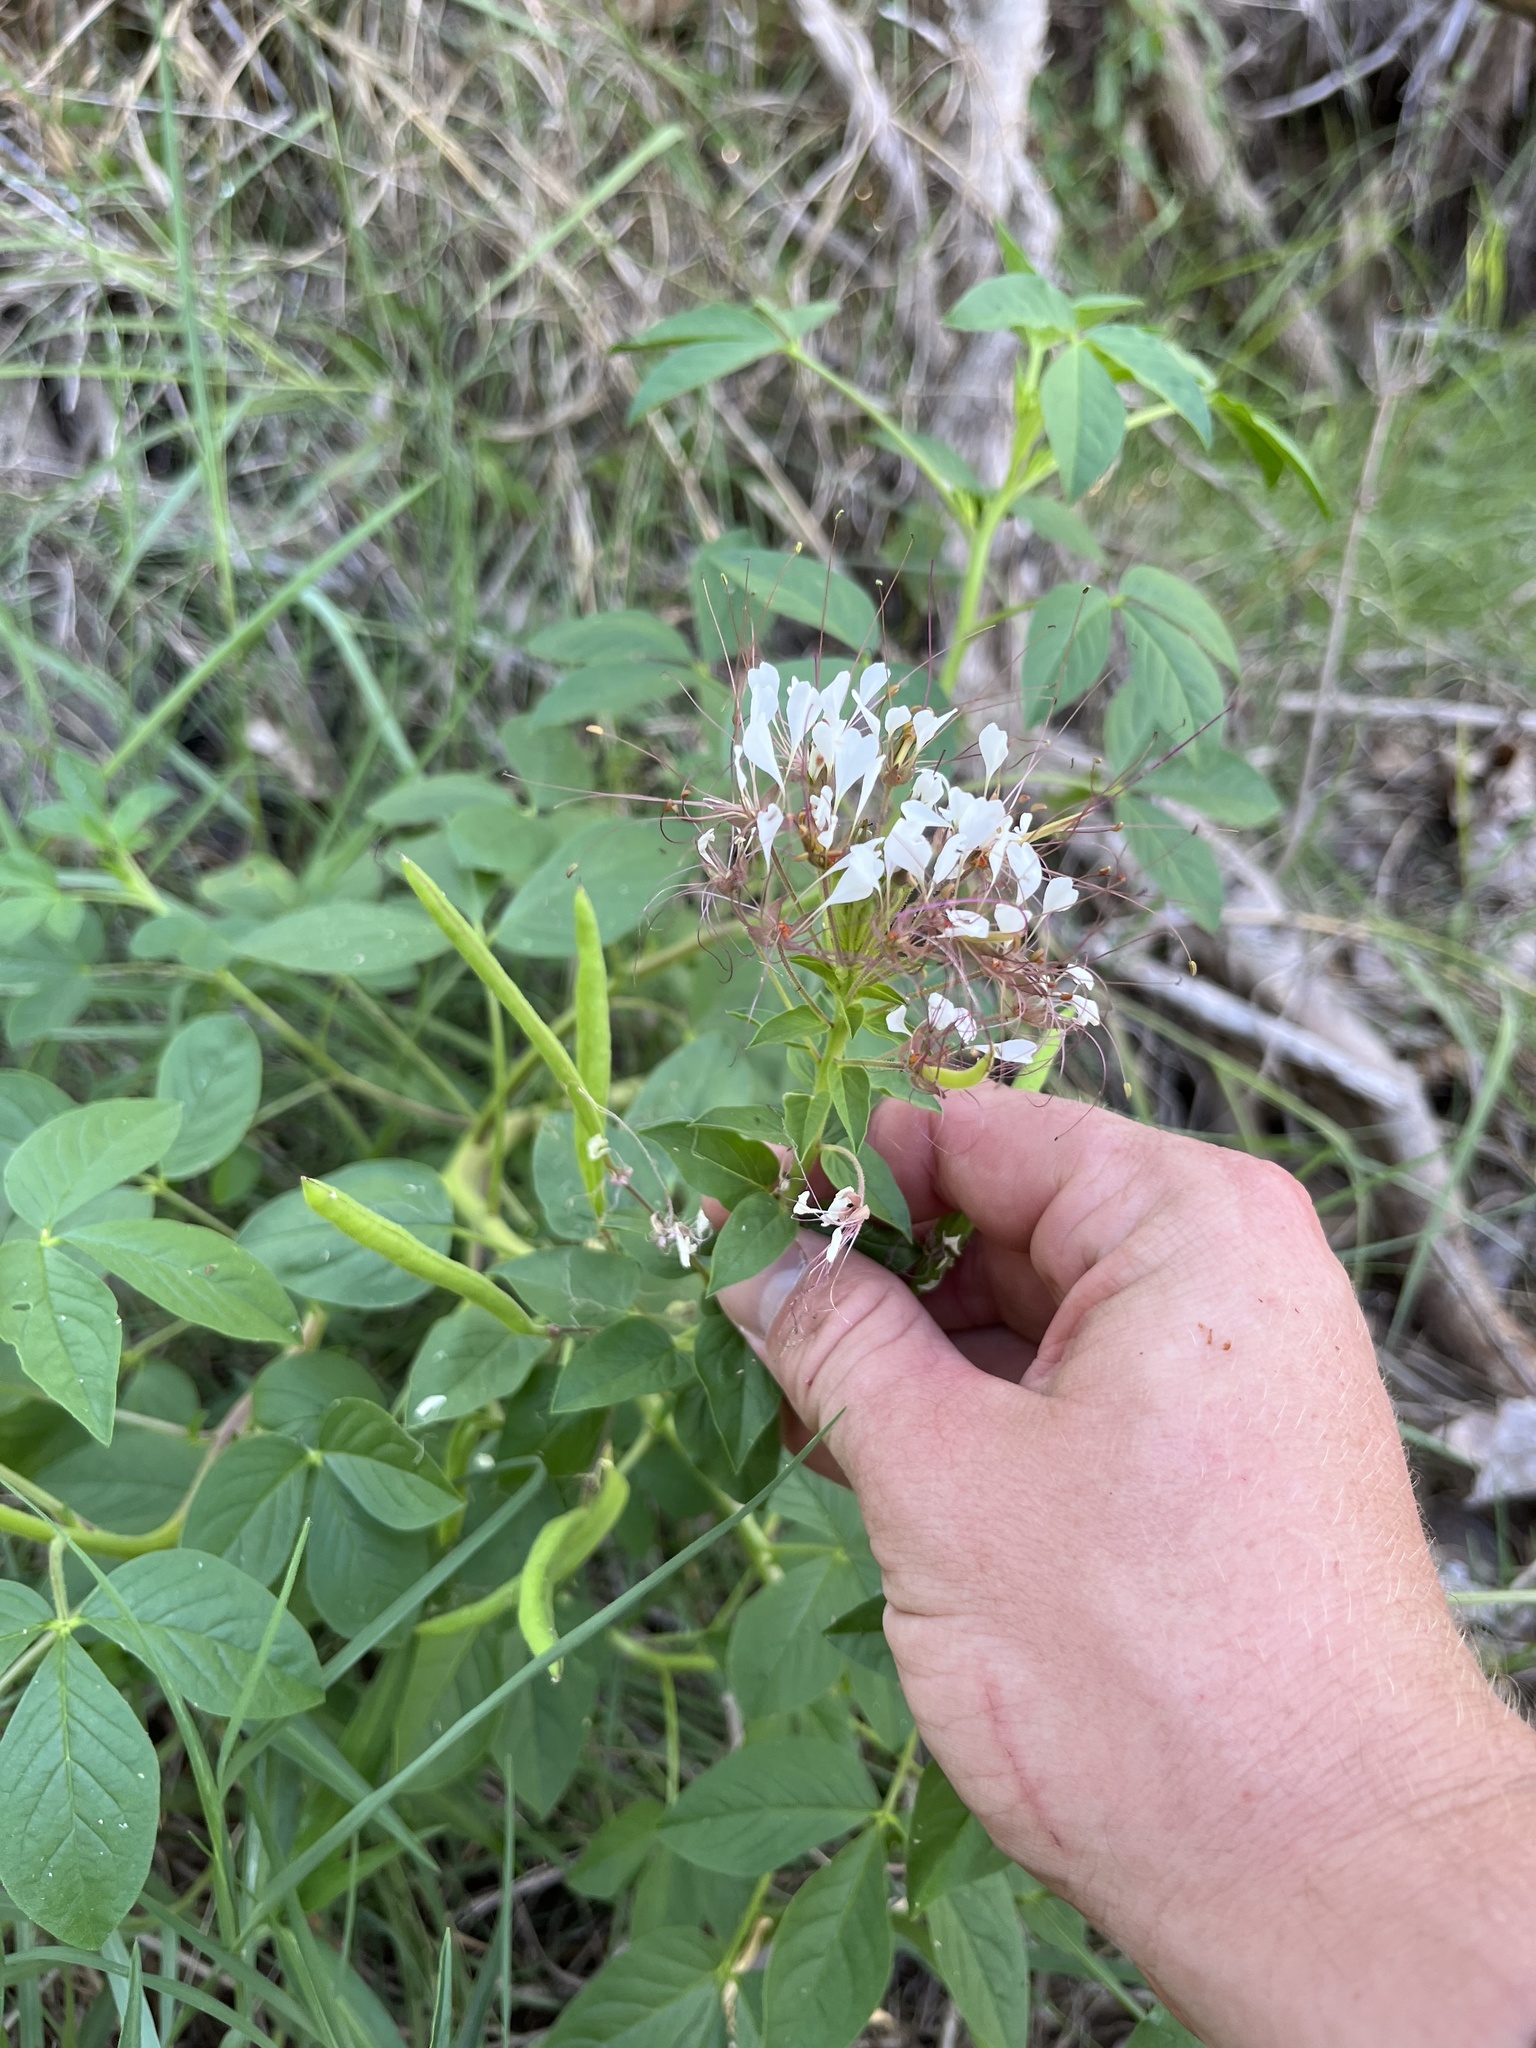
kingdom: Plantae
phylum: Tracheophyta
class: Magnoliopsida
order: Brassicales
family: Cleomaceae
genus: Polanisia
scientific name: Polanisia dodecandra
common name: Clammyweed
